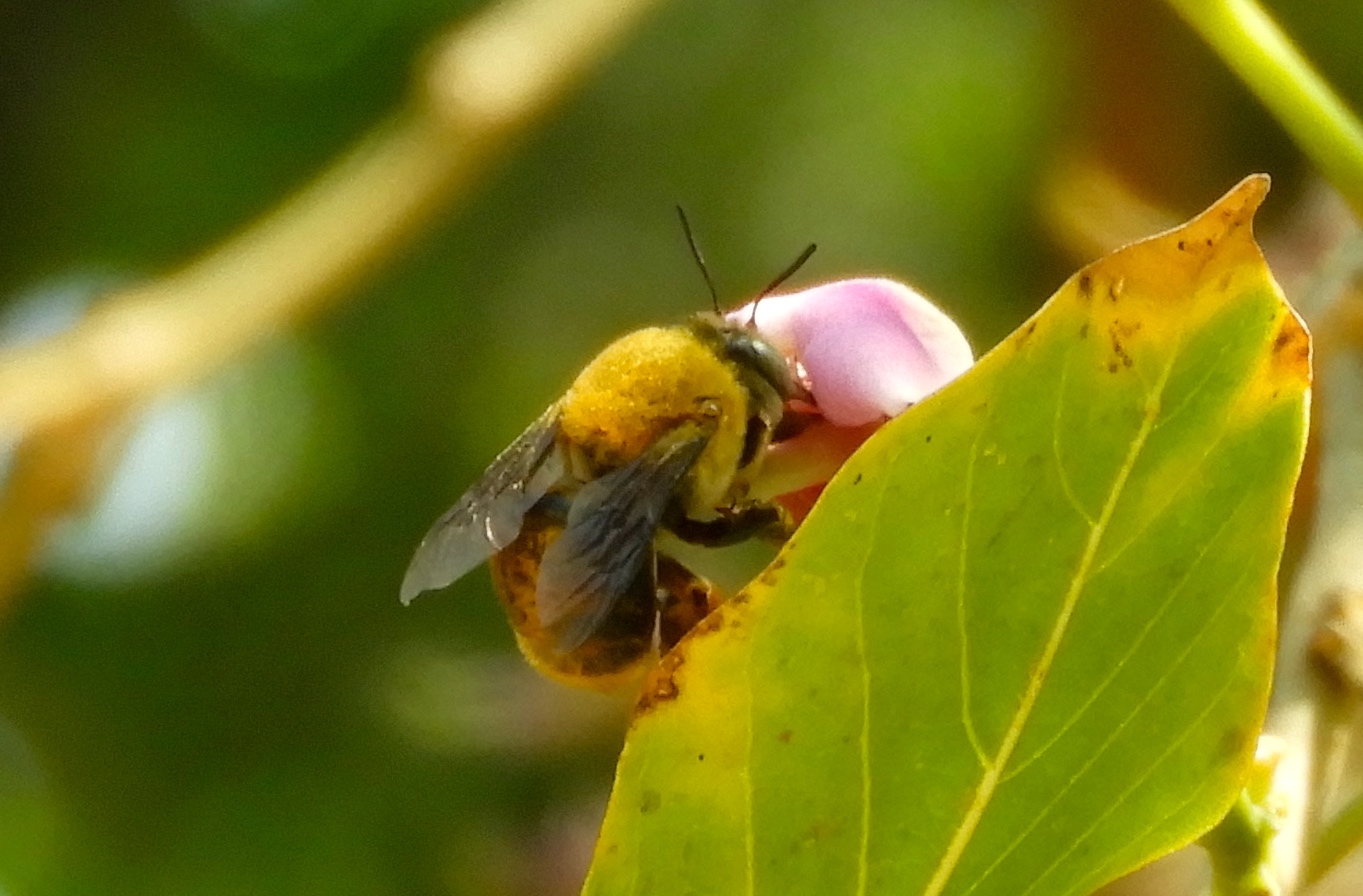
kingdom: Animalia
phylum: Arthropoda
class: Insecta
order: Hymenoptera
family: Apidae
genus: Centris
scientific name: Centris eurypatana
